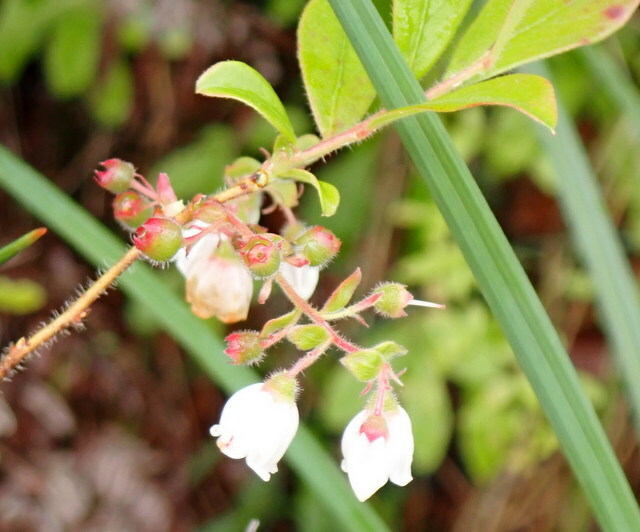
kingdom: Plantae
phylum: Tracheophyta
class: Magnoliopsida
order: Ericales
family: Ericaceae
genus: Gaylussacia
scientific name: Gaylussacia mosieri
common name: Hirsute huckleberry
